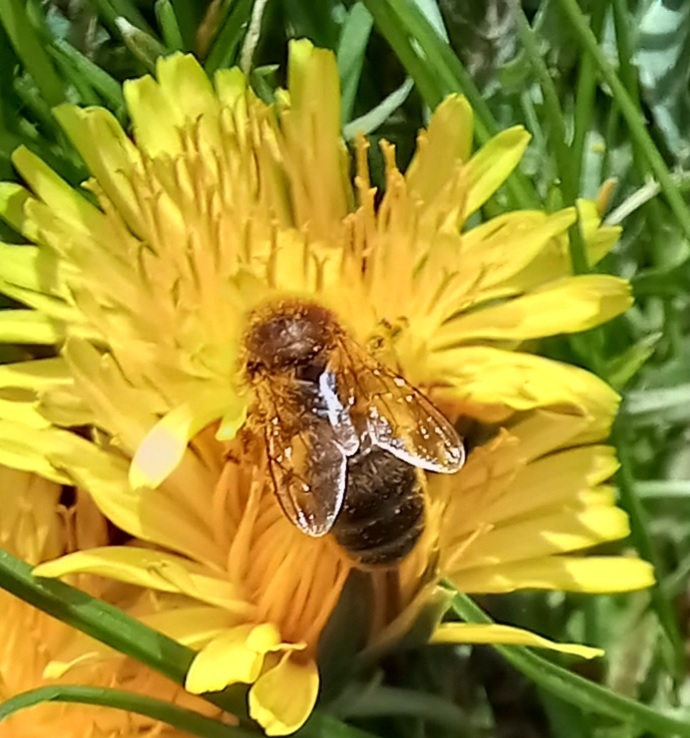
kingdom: Animalia
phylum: Arthropoda
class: Insecta
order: Hymenoptera
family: Apidae
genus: Apis
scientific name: Apis mellifera
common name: Honey bee
